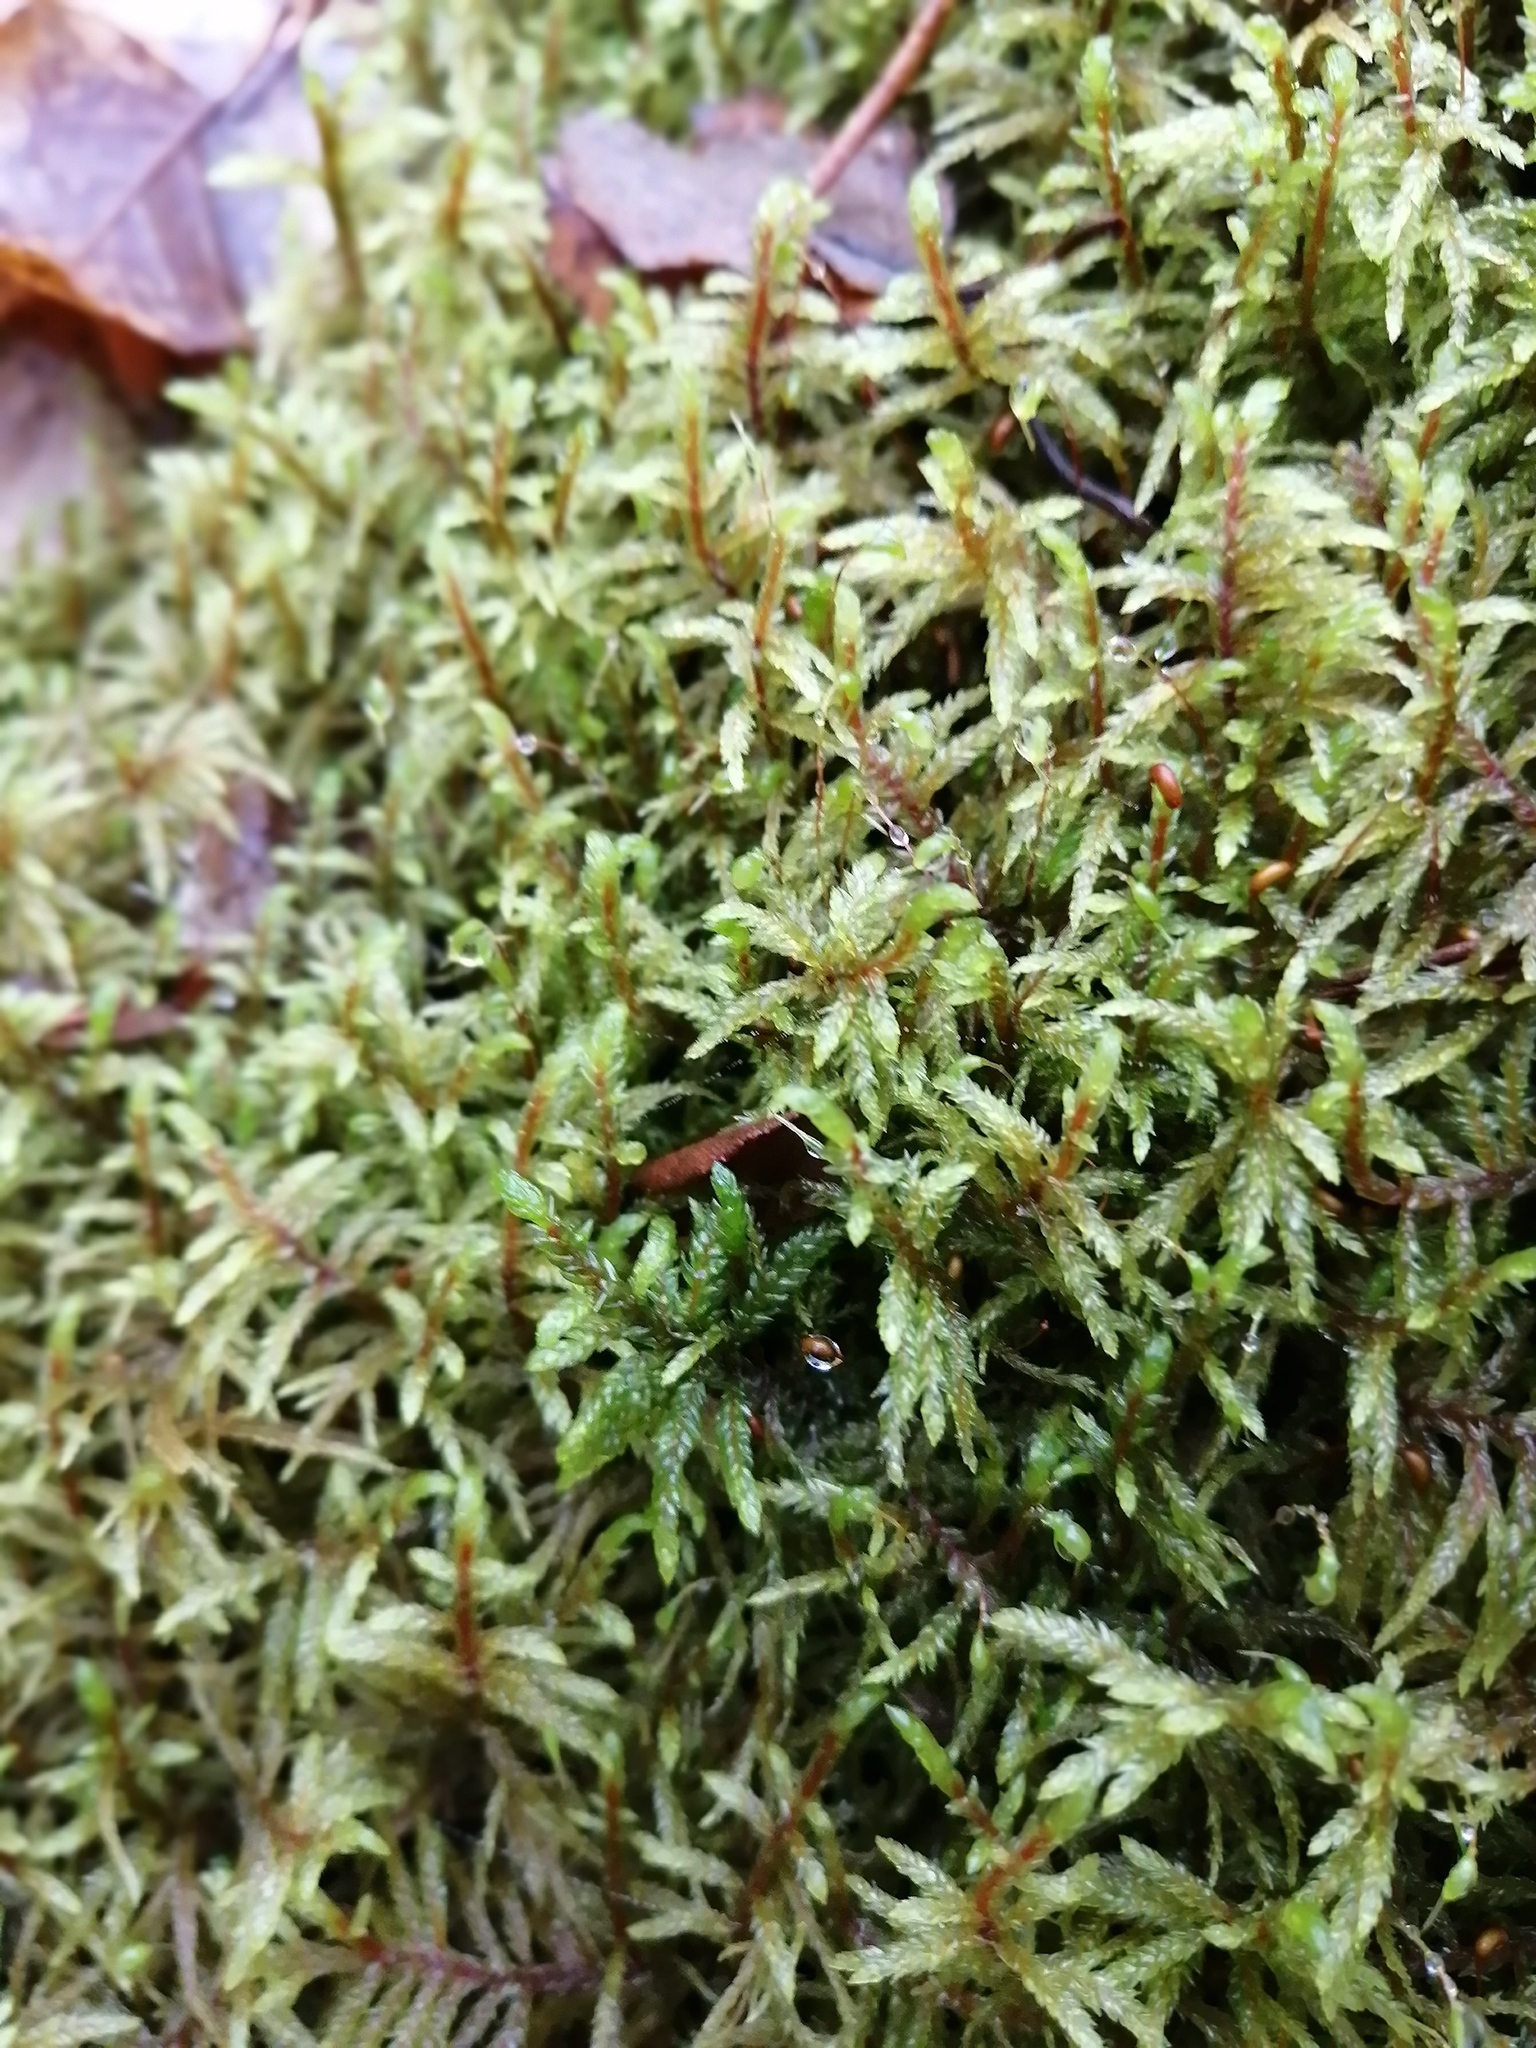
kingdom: Plantae
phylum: Bryophyta
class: Bryopsida
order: Hypnales
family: Hylocomiaceae
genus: Pleurozium
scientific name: Pleurozium schreberi
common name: Red-stemmed feather moss
